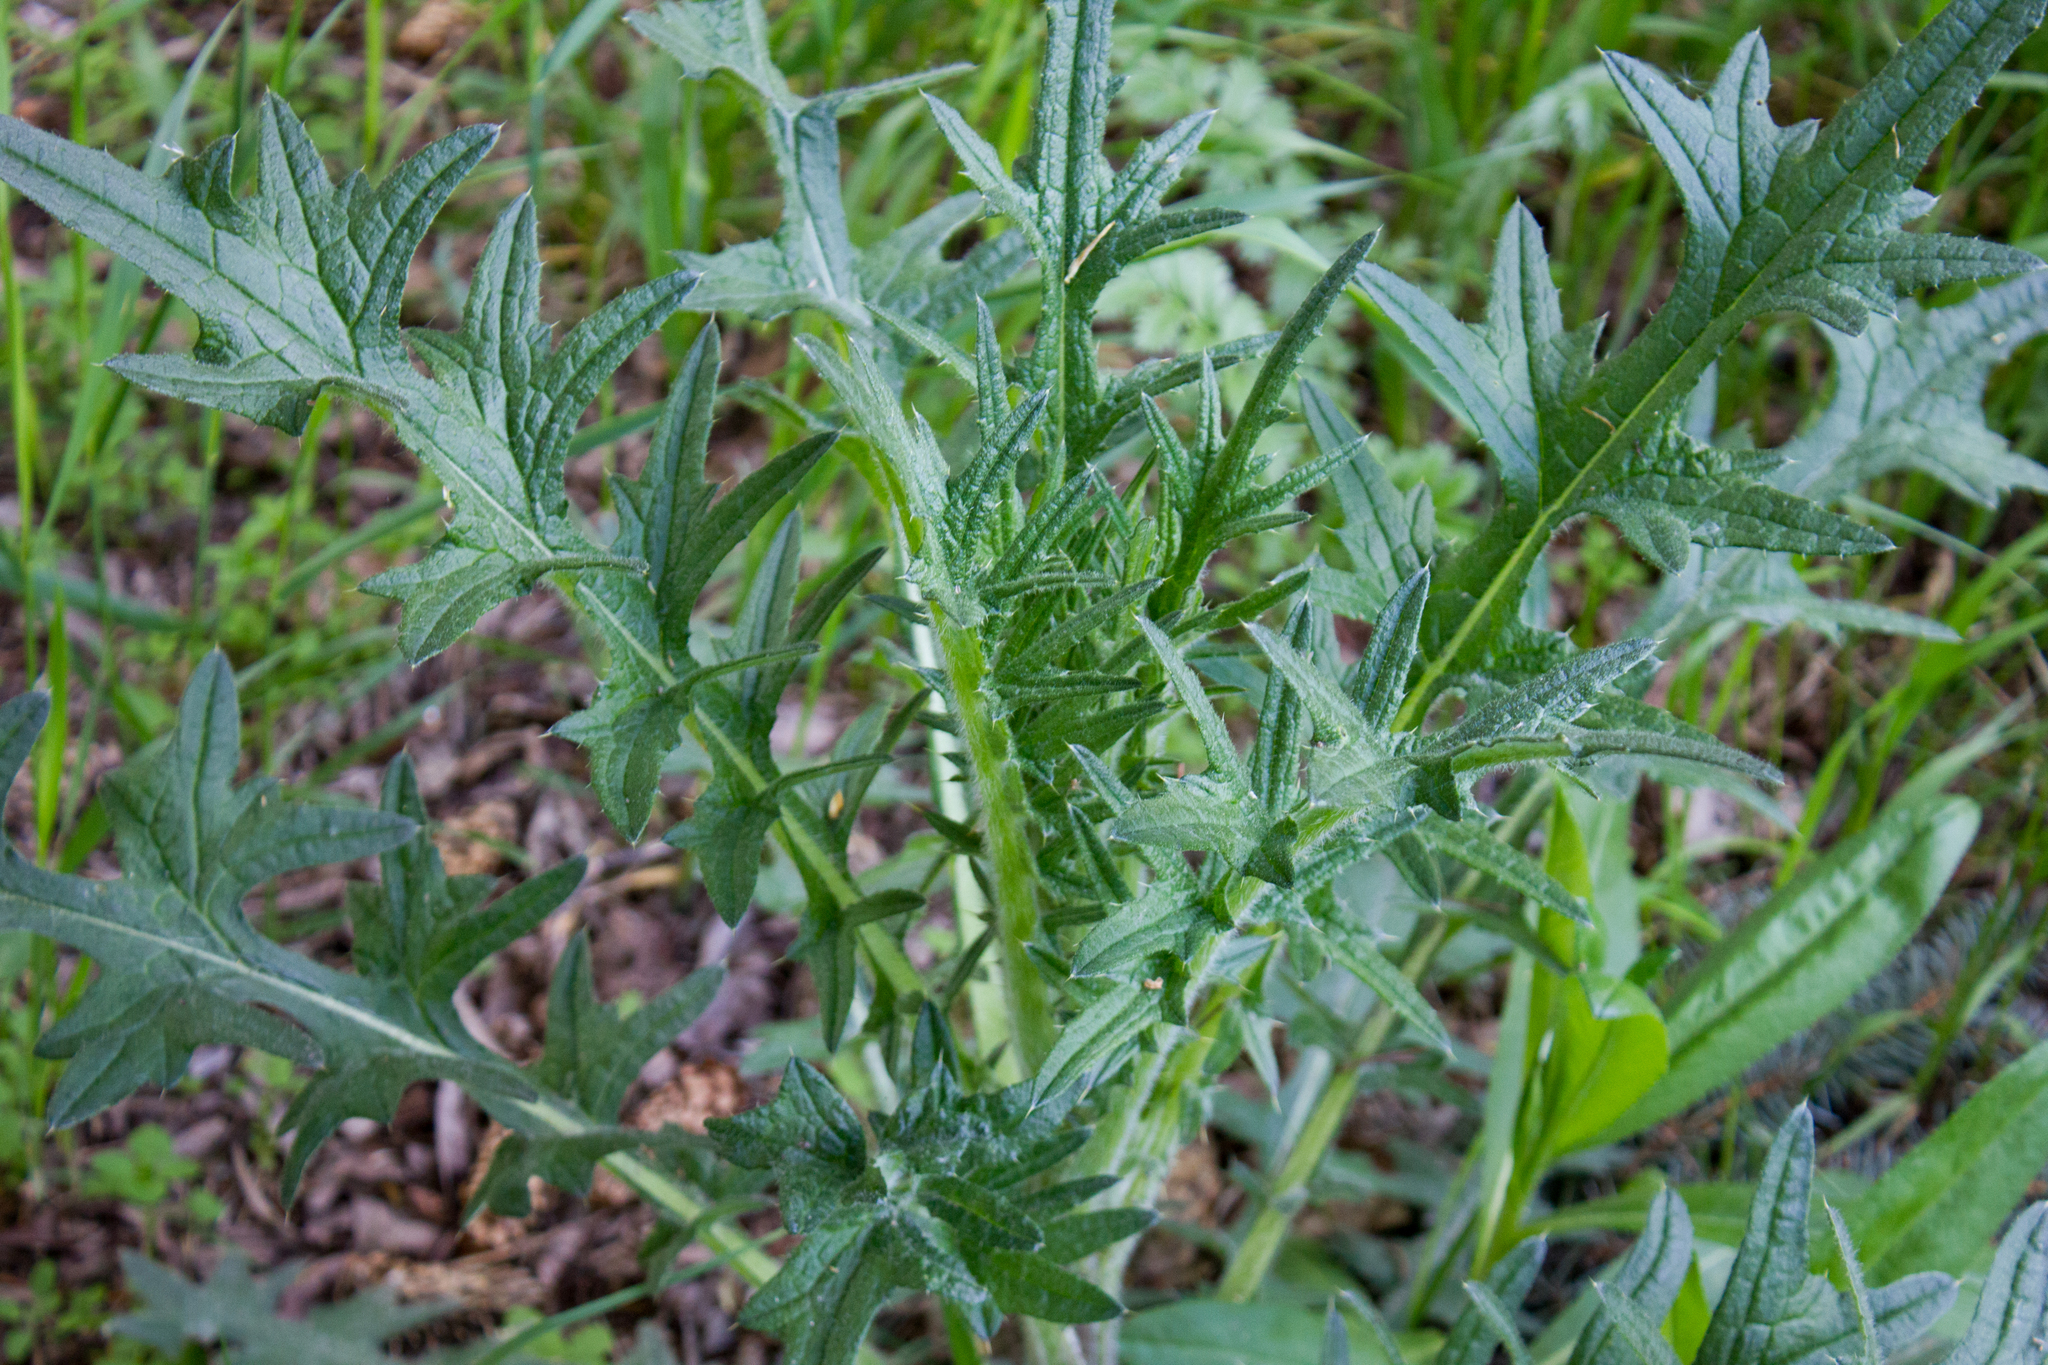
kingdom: Plantae
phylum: Tracheophyta
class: Magnoliopsida
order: Asterales
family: Asteraceae
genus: Cirsium
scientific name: Cirsium vulgare
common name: Bull thistle
